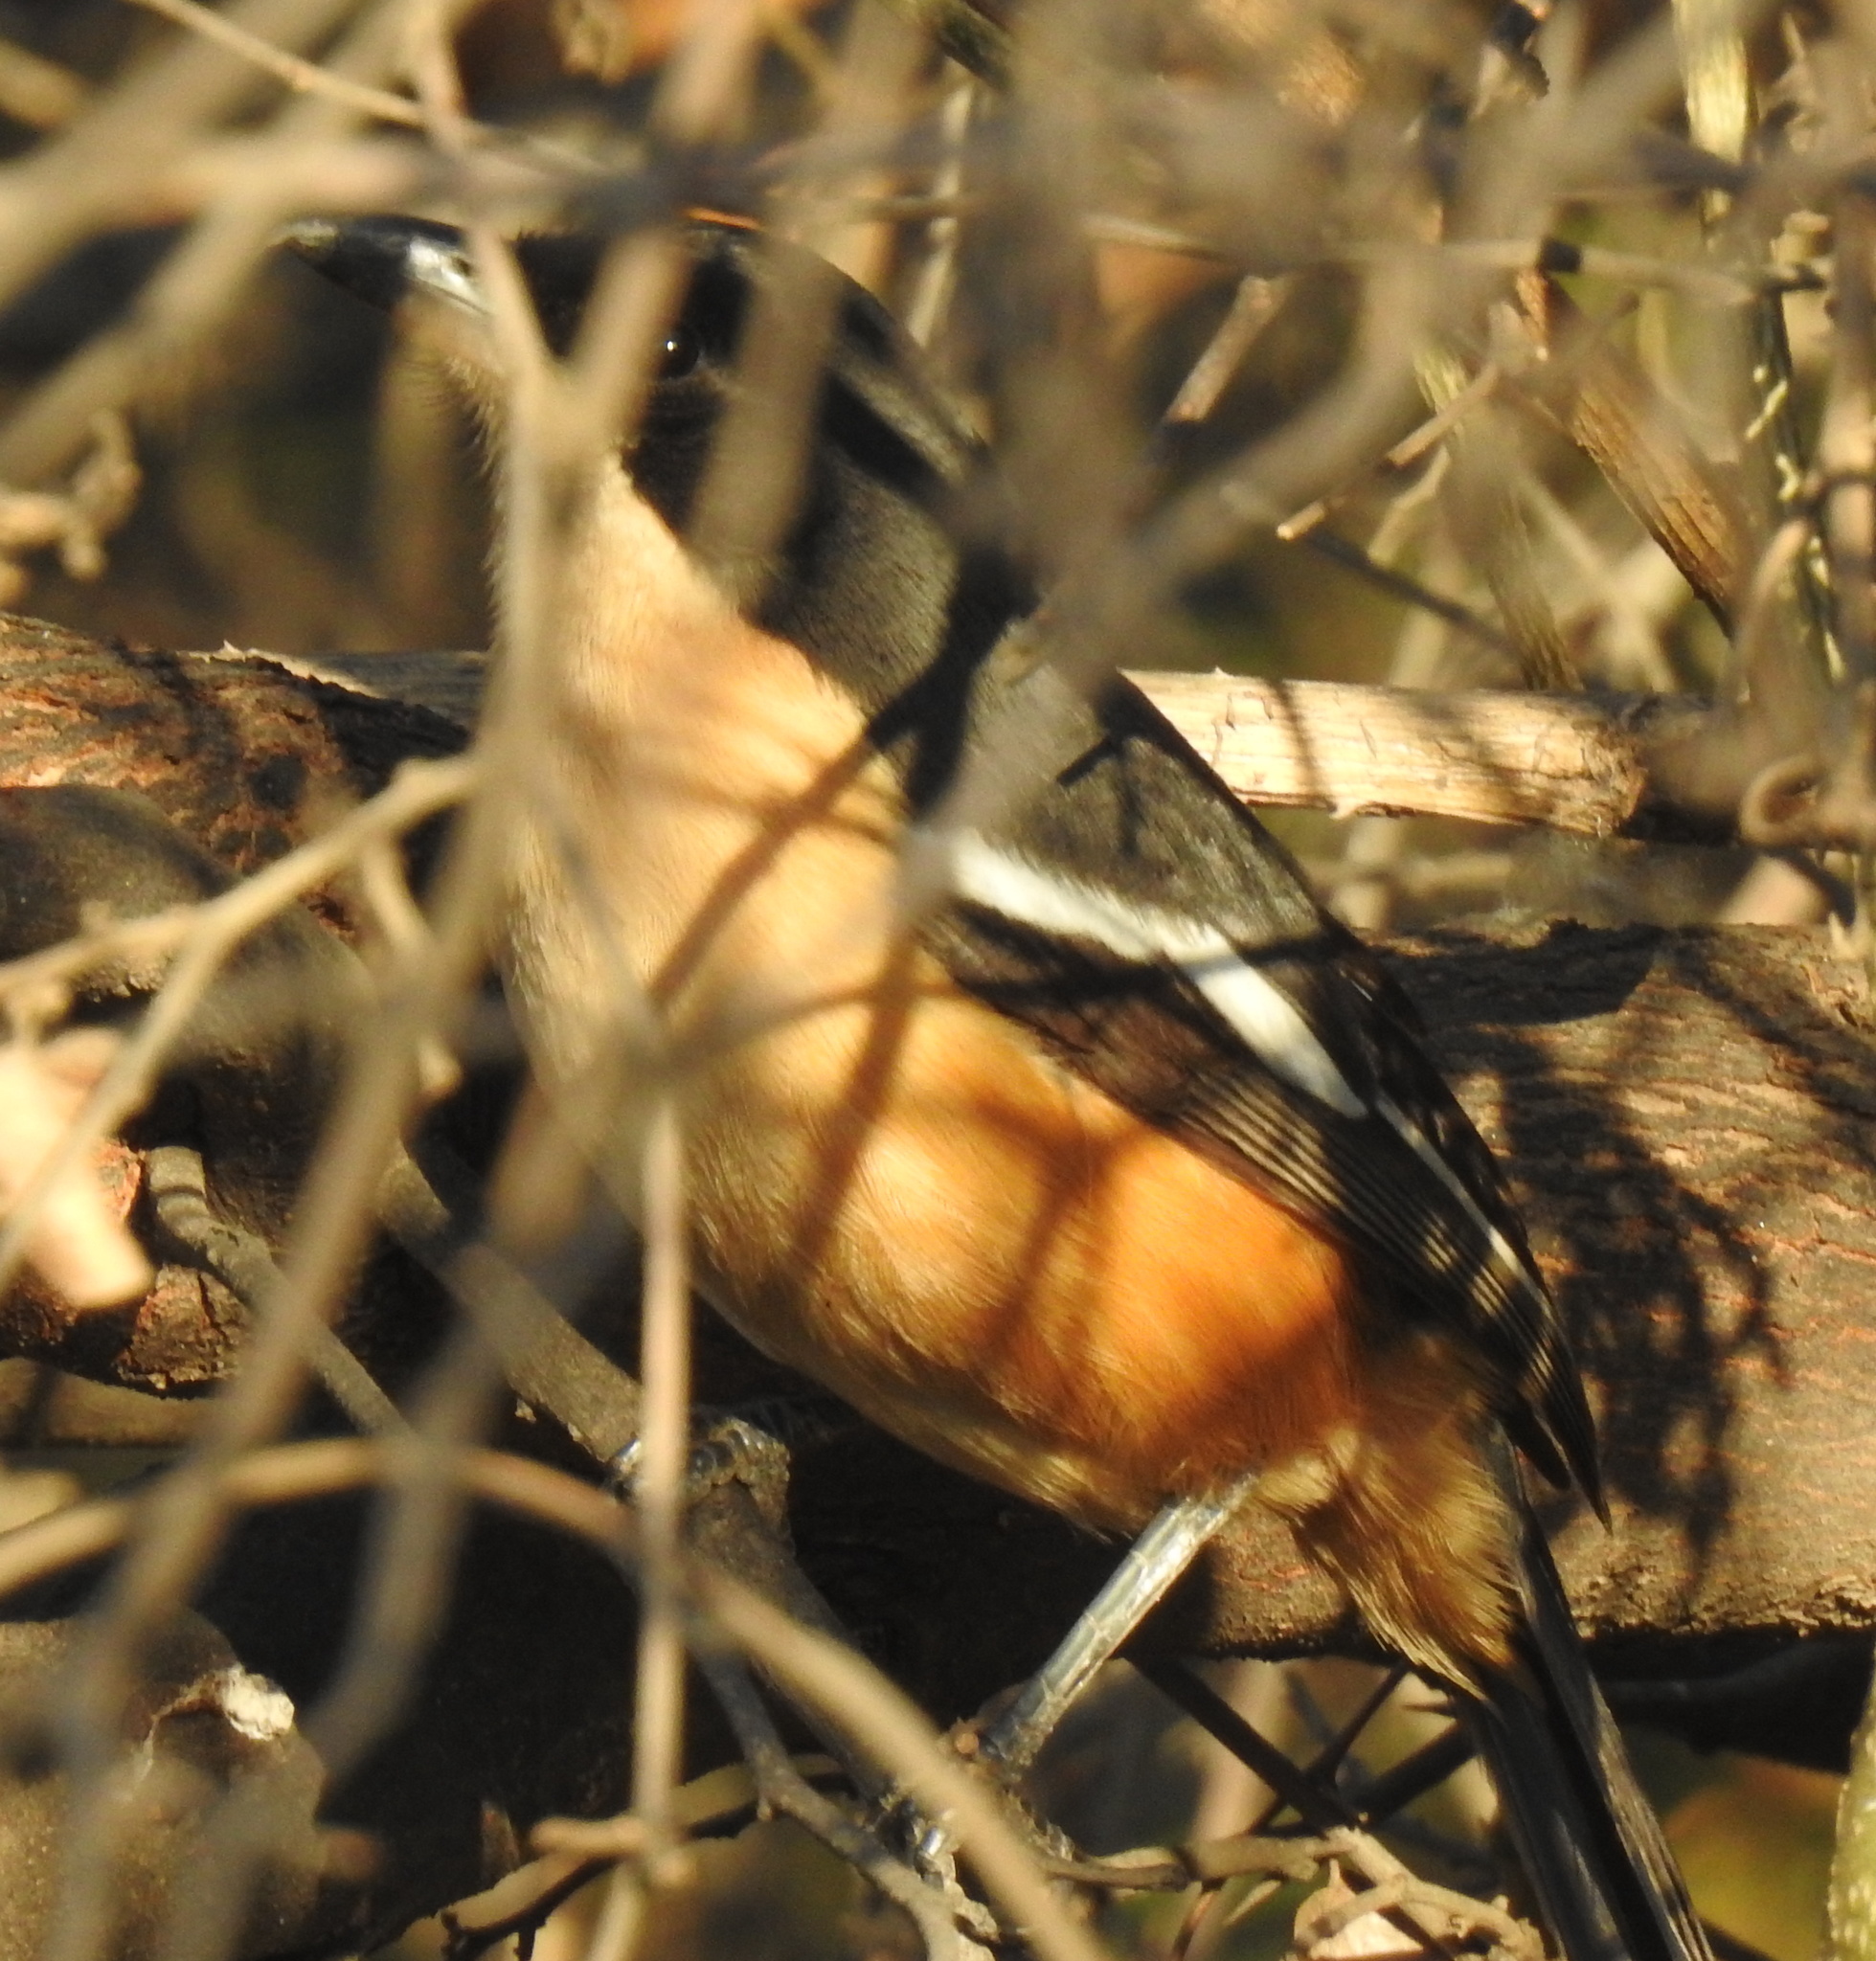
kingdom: Animalia
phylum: Chordata
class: Aves
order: Passeriformes
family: Malaconotidae
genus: Laniarius
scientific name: Laniarius ferrugineus
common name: Southern boubou
